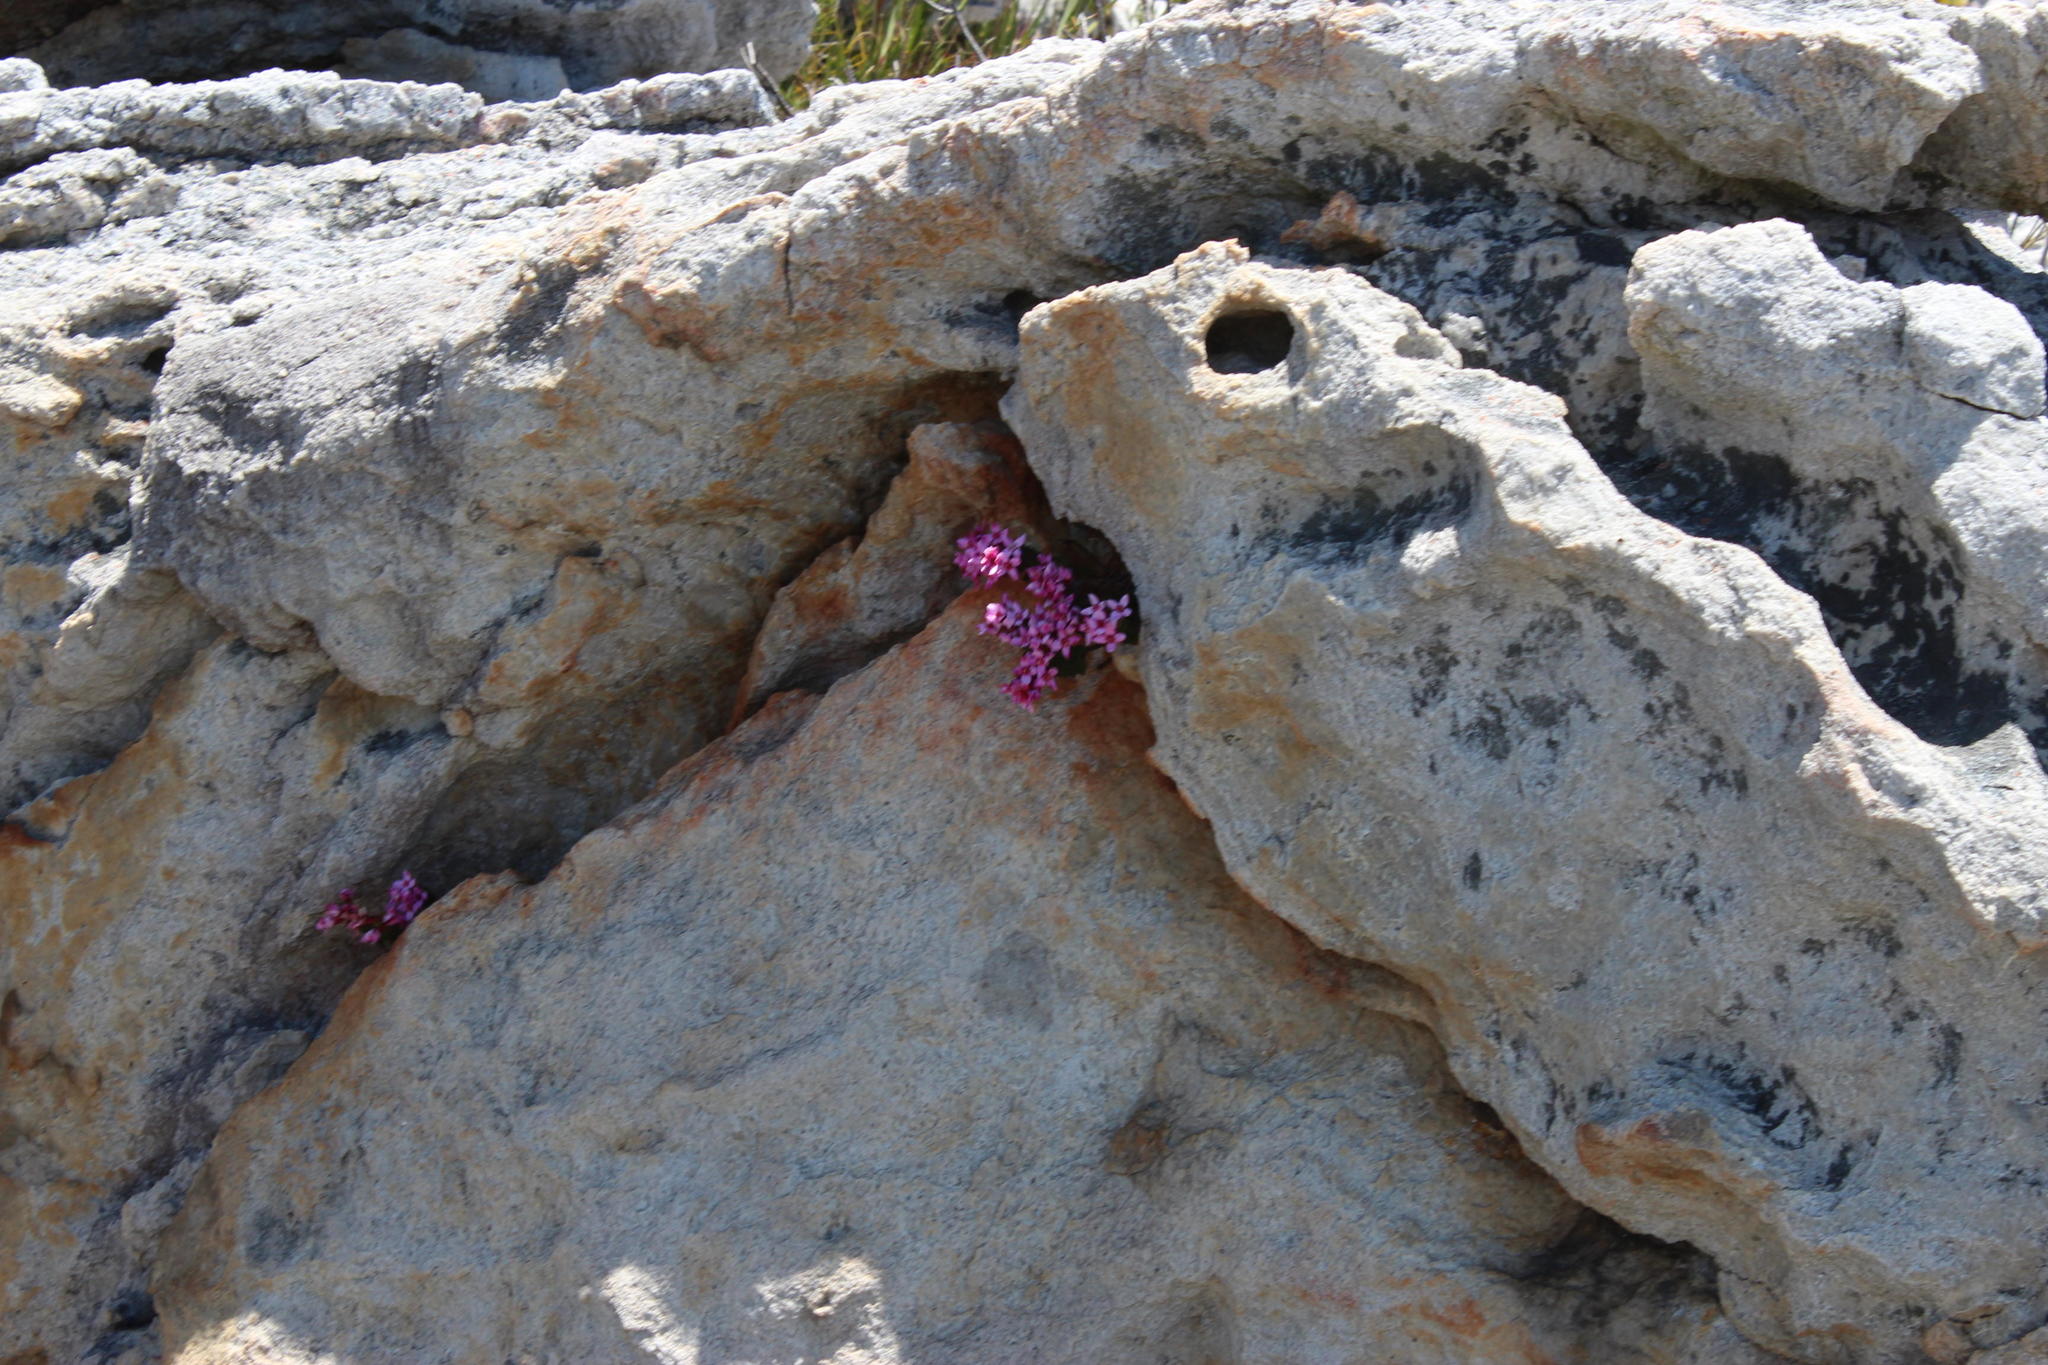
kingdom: Plantae
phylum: Tracheophyta
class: Magnoliopsida
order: Myrtales
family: Penaeaceae
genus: Sonderothamnus
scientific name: Sonderothamnus petraeus
